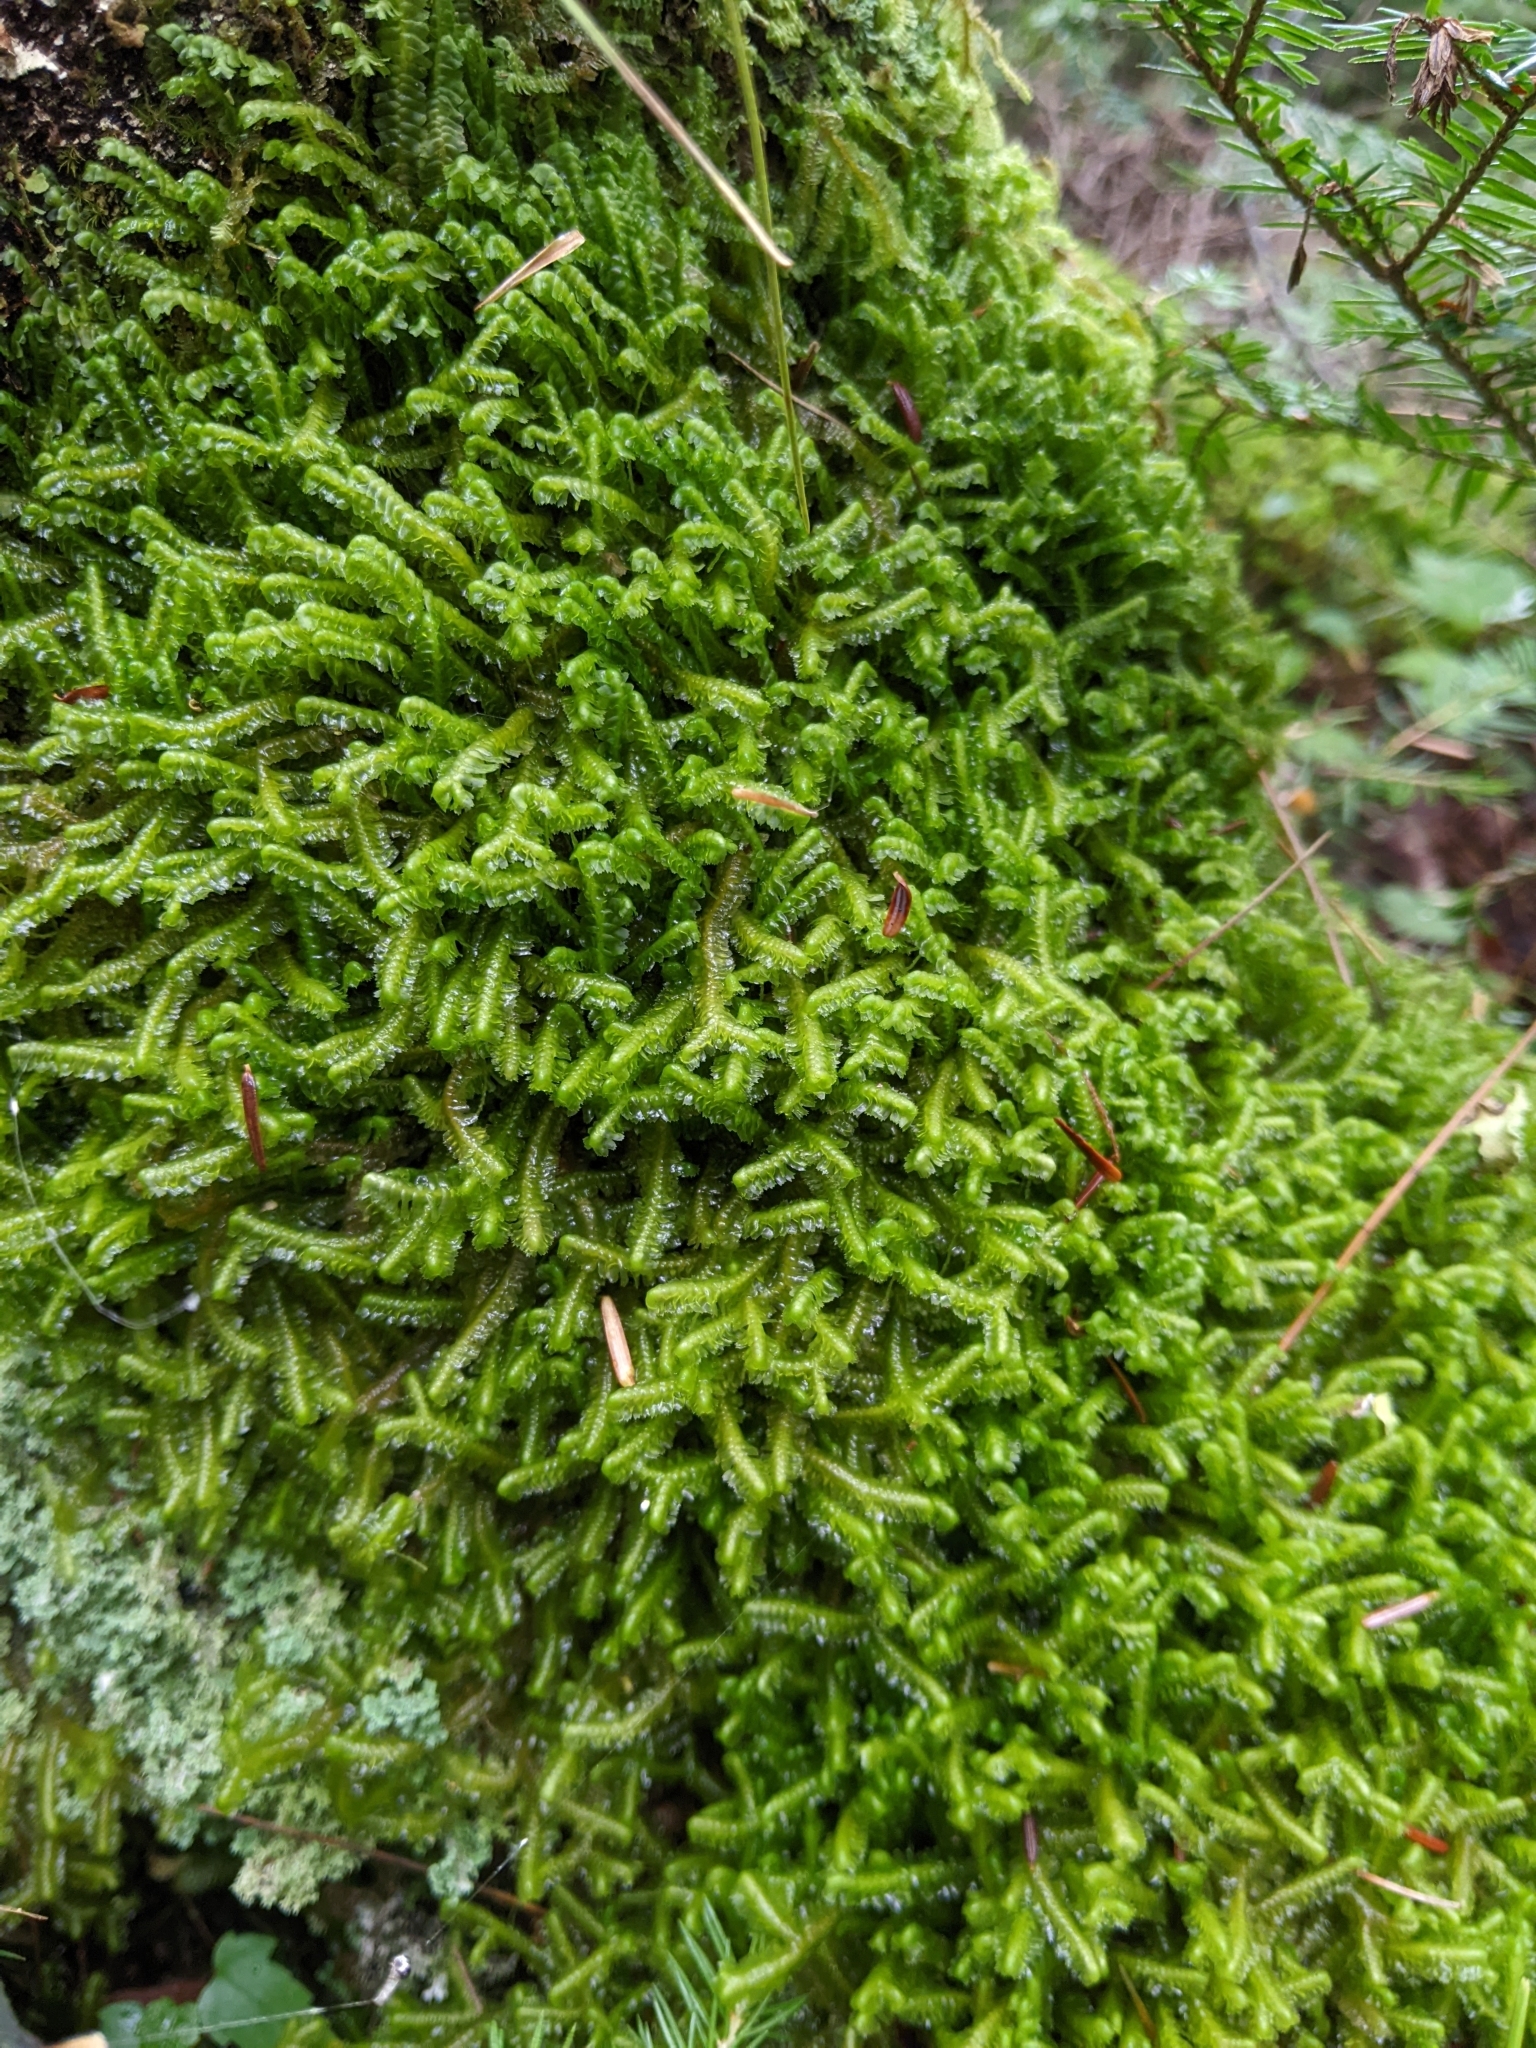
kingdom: Plantae
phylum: Marchantiophyta
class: Jungermanniopsida
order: Jungermanniales
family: Lepidoziaceae
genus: Bazzania
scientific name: Bazzania trilobata
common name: Three-lobed whipwort
